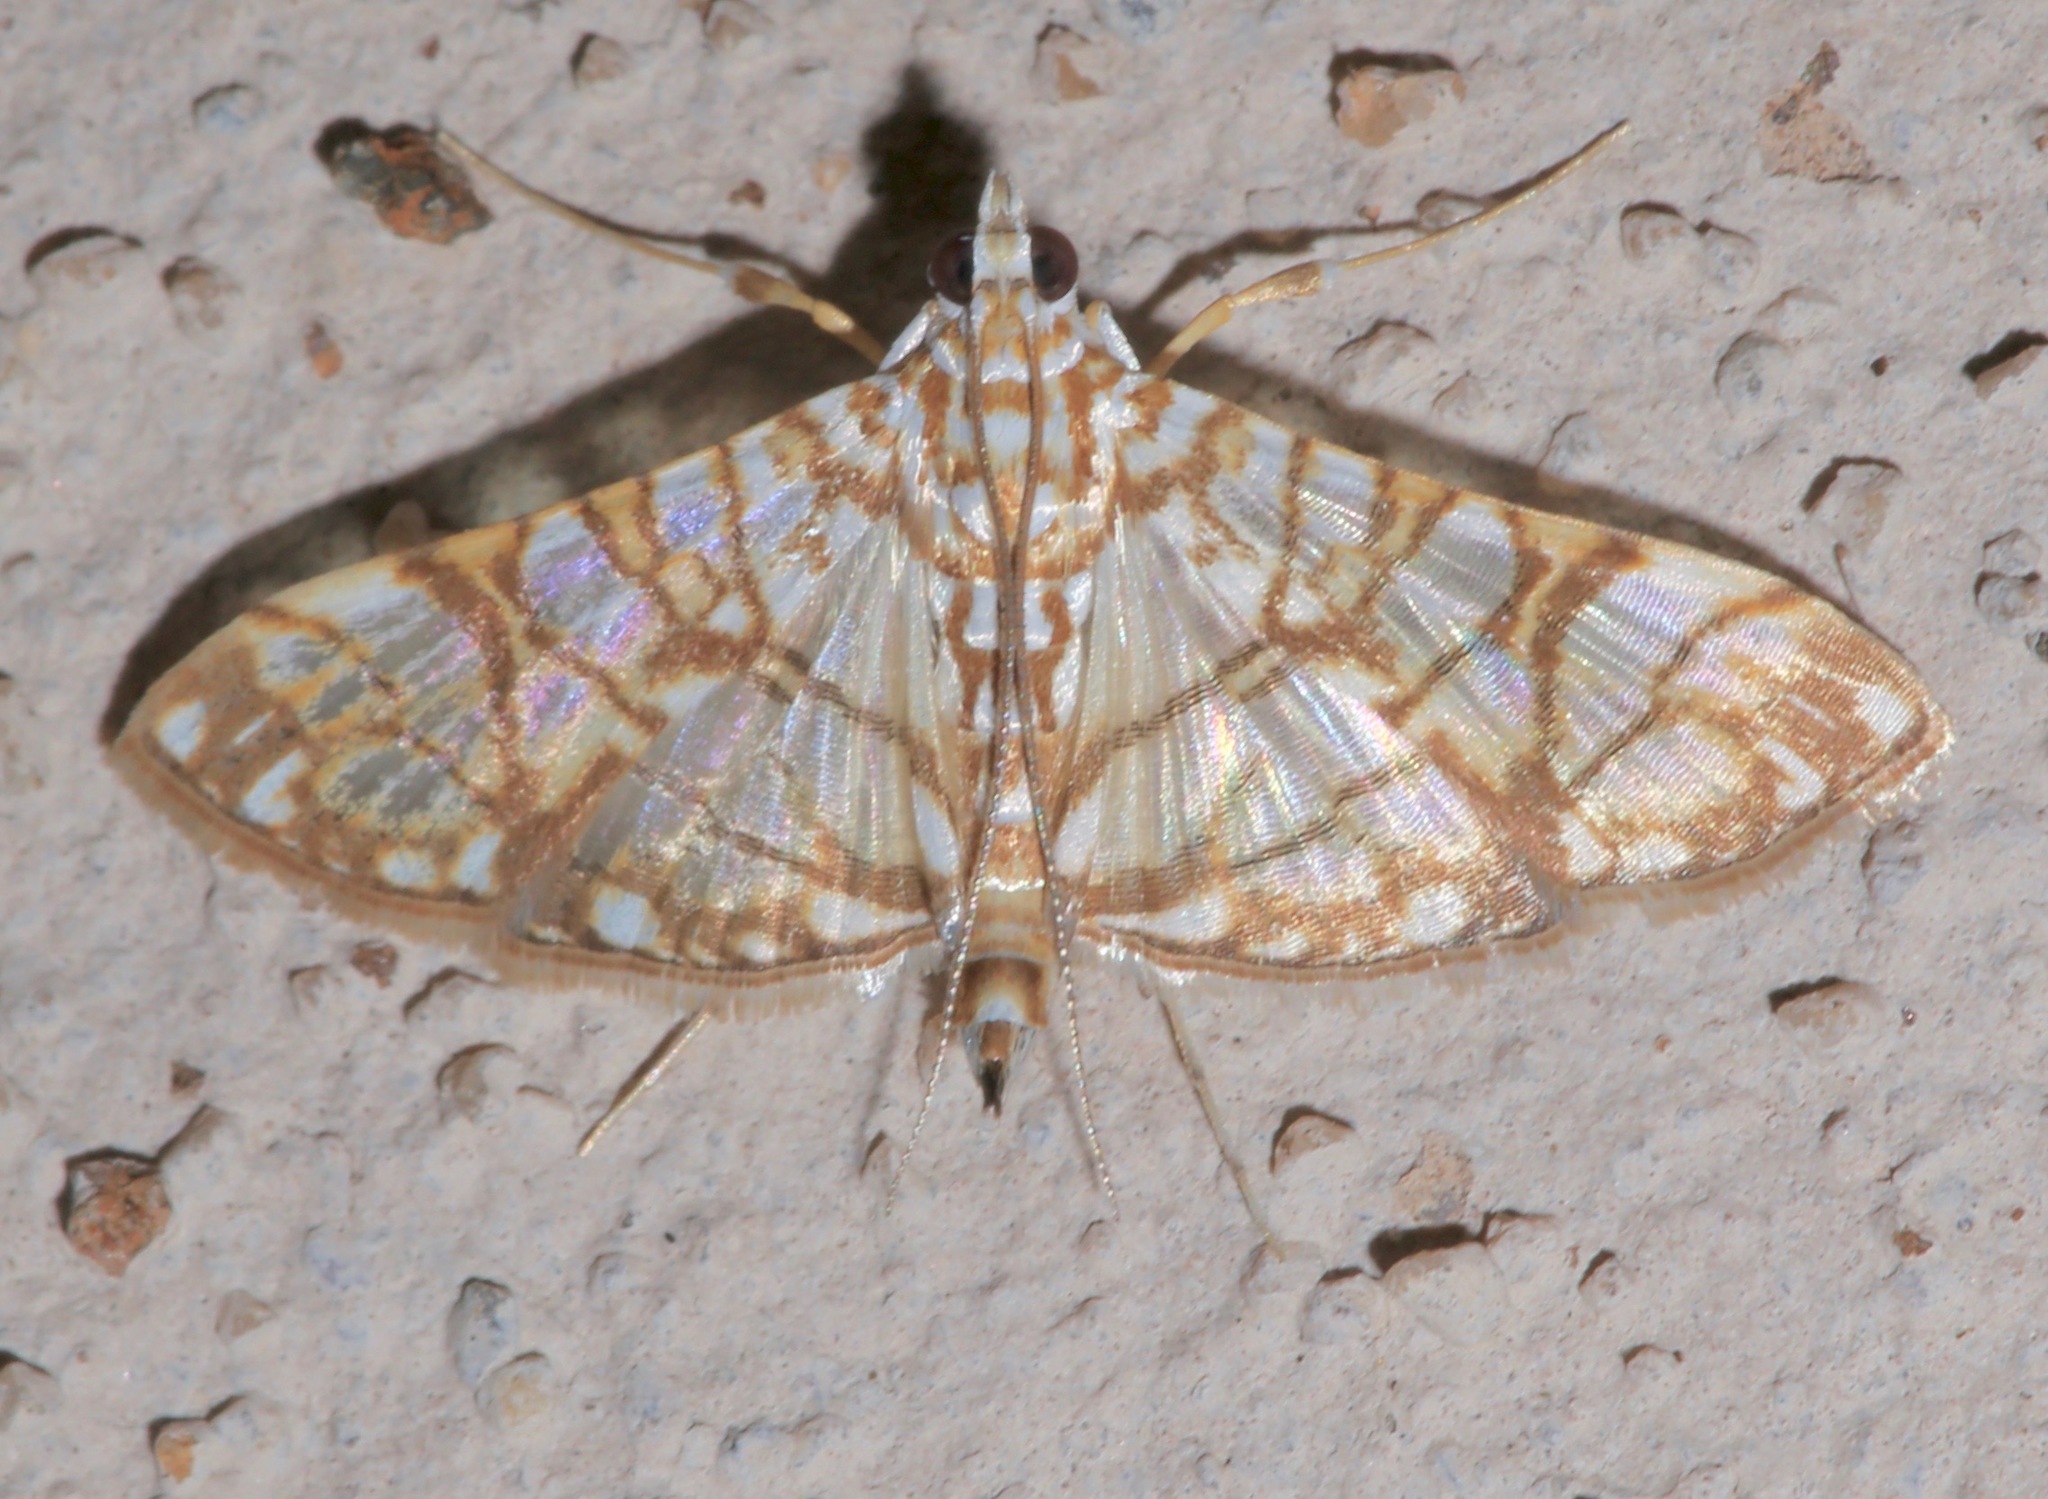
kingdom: Animalia
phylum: Arthropoda
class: Insecta
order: Lepidoptera
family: Crambidae
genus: Synclera
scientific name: Synclera traducalis
